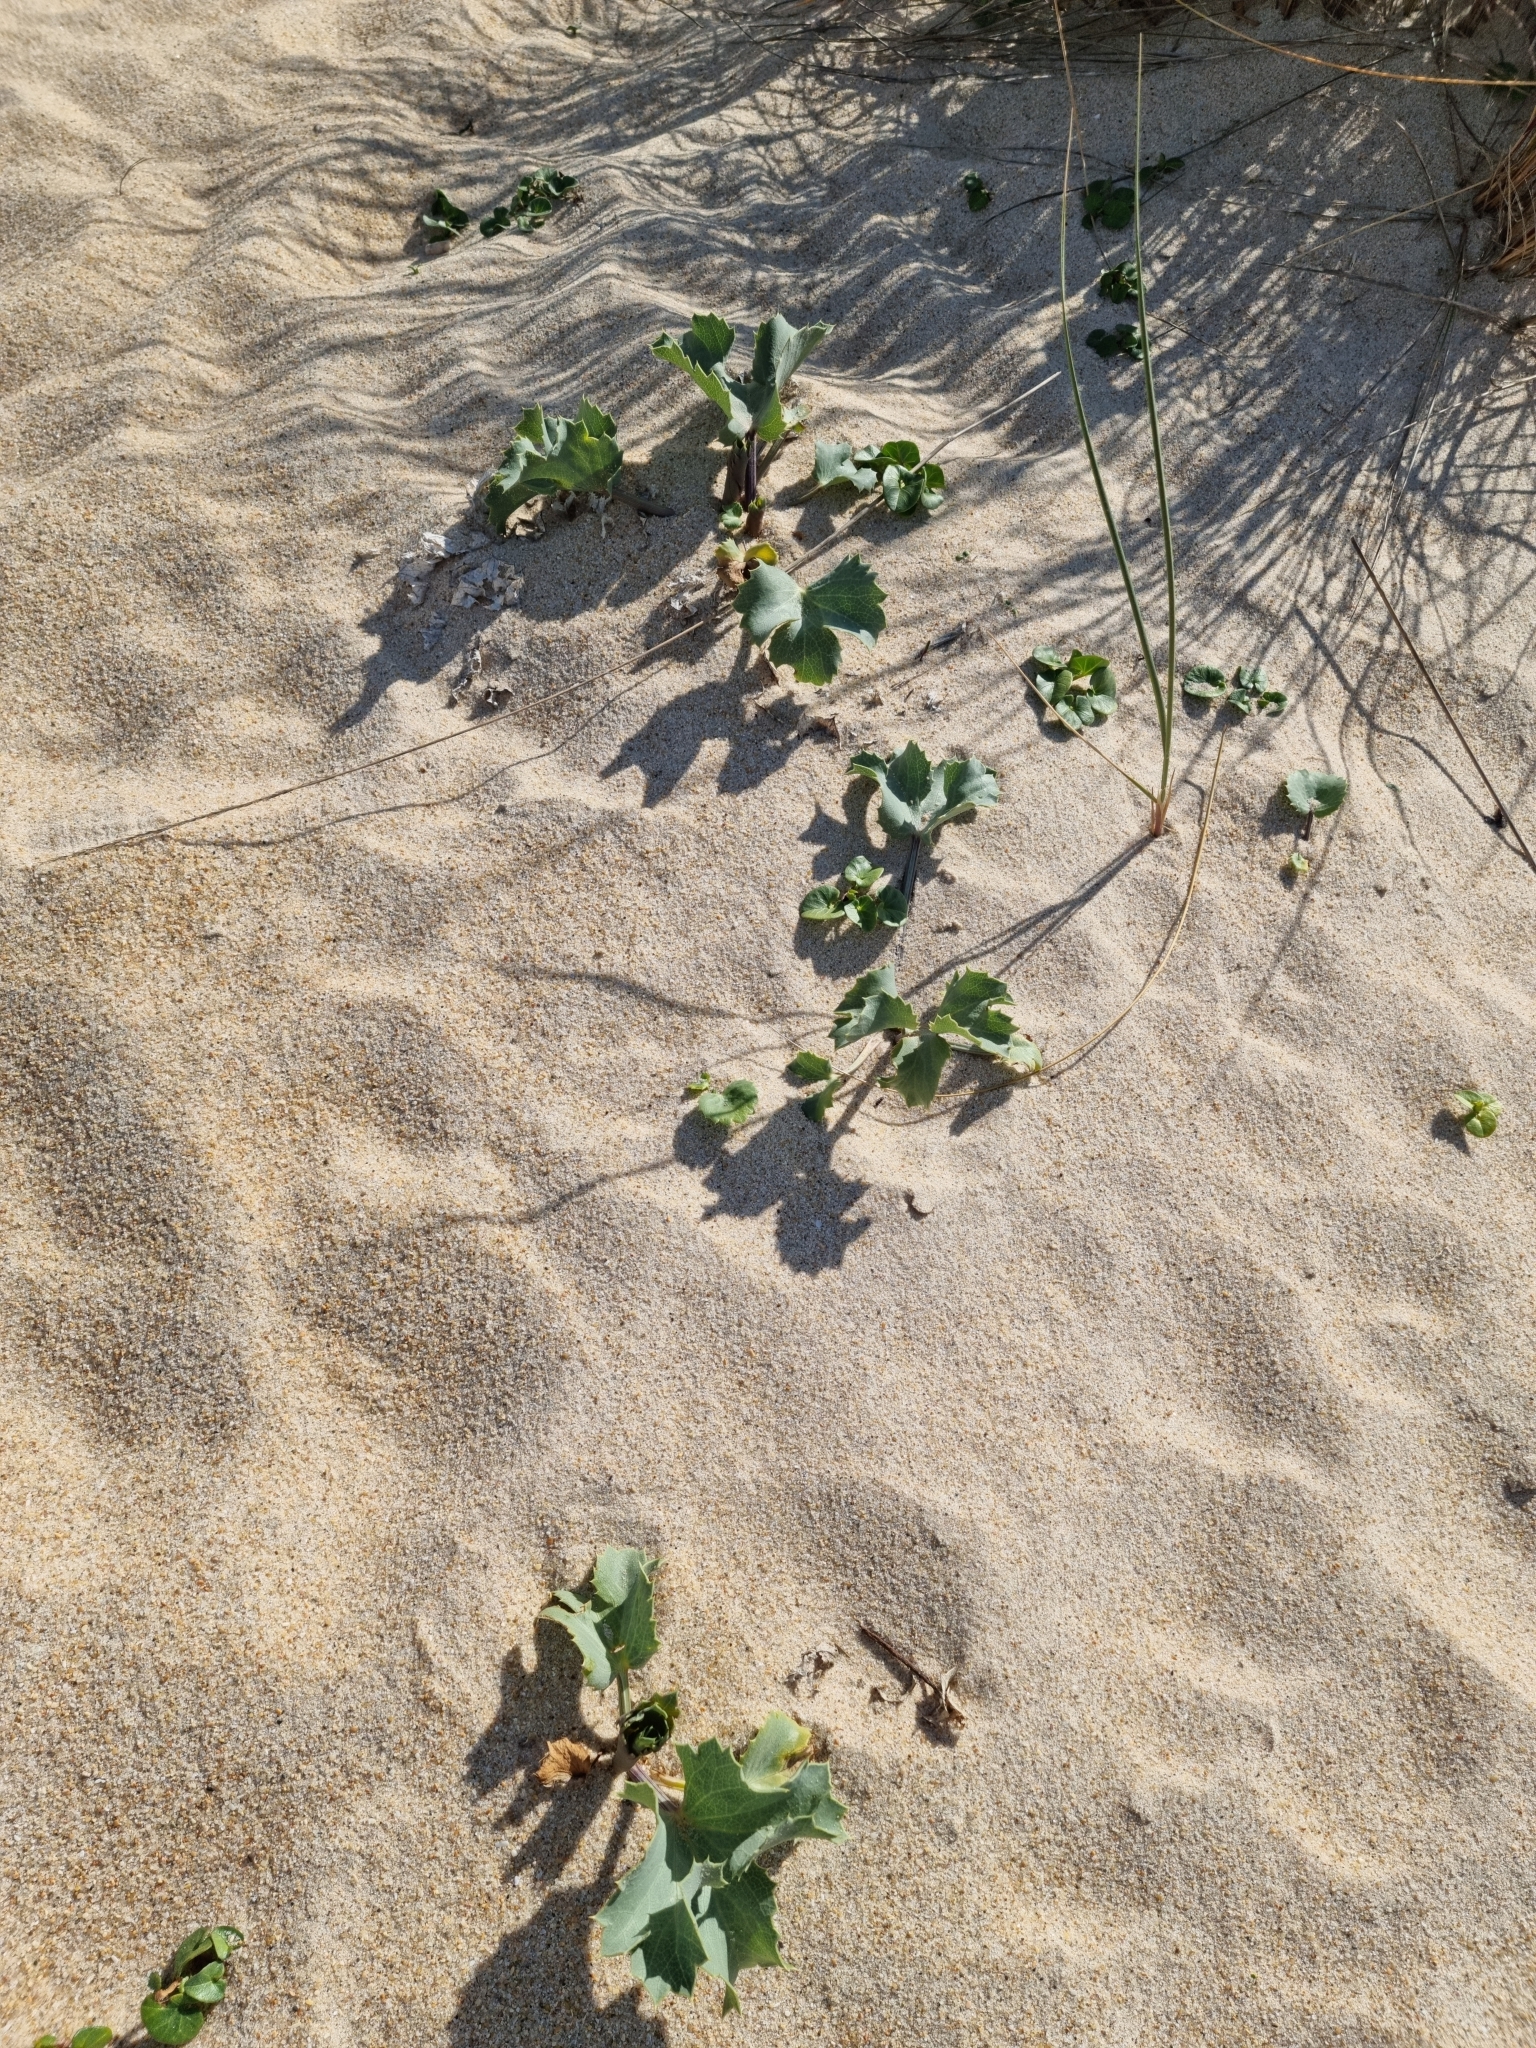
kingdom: Plantae
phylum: Tracheophyta
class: Magnoliopsida
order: Apiales
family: Apiaceae
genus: Eryngium
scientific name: Eryngium maritimum
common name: Sea-holly
